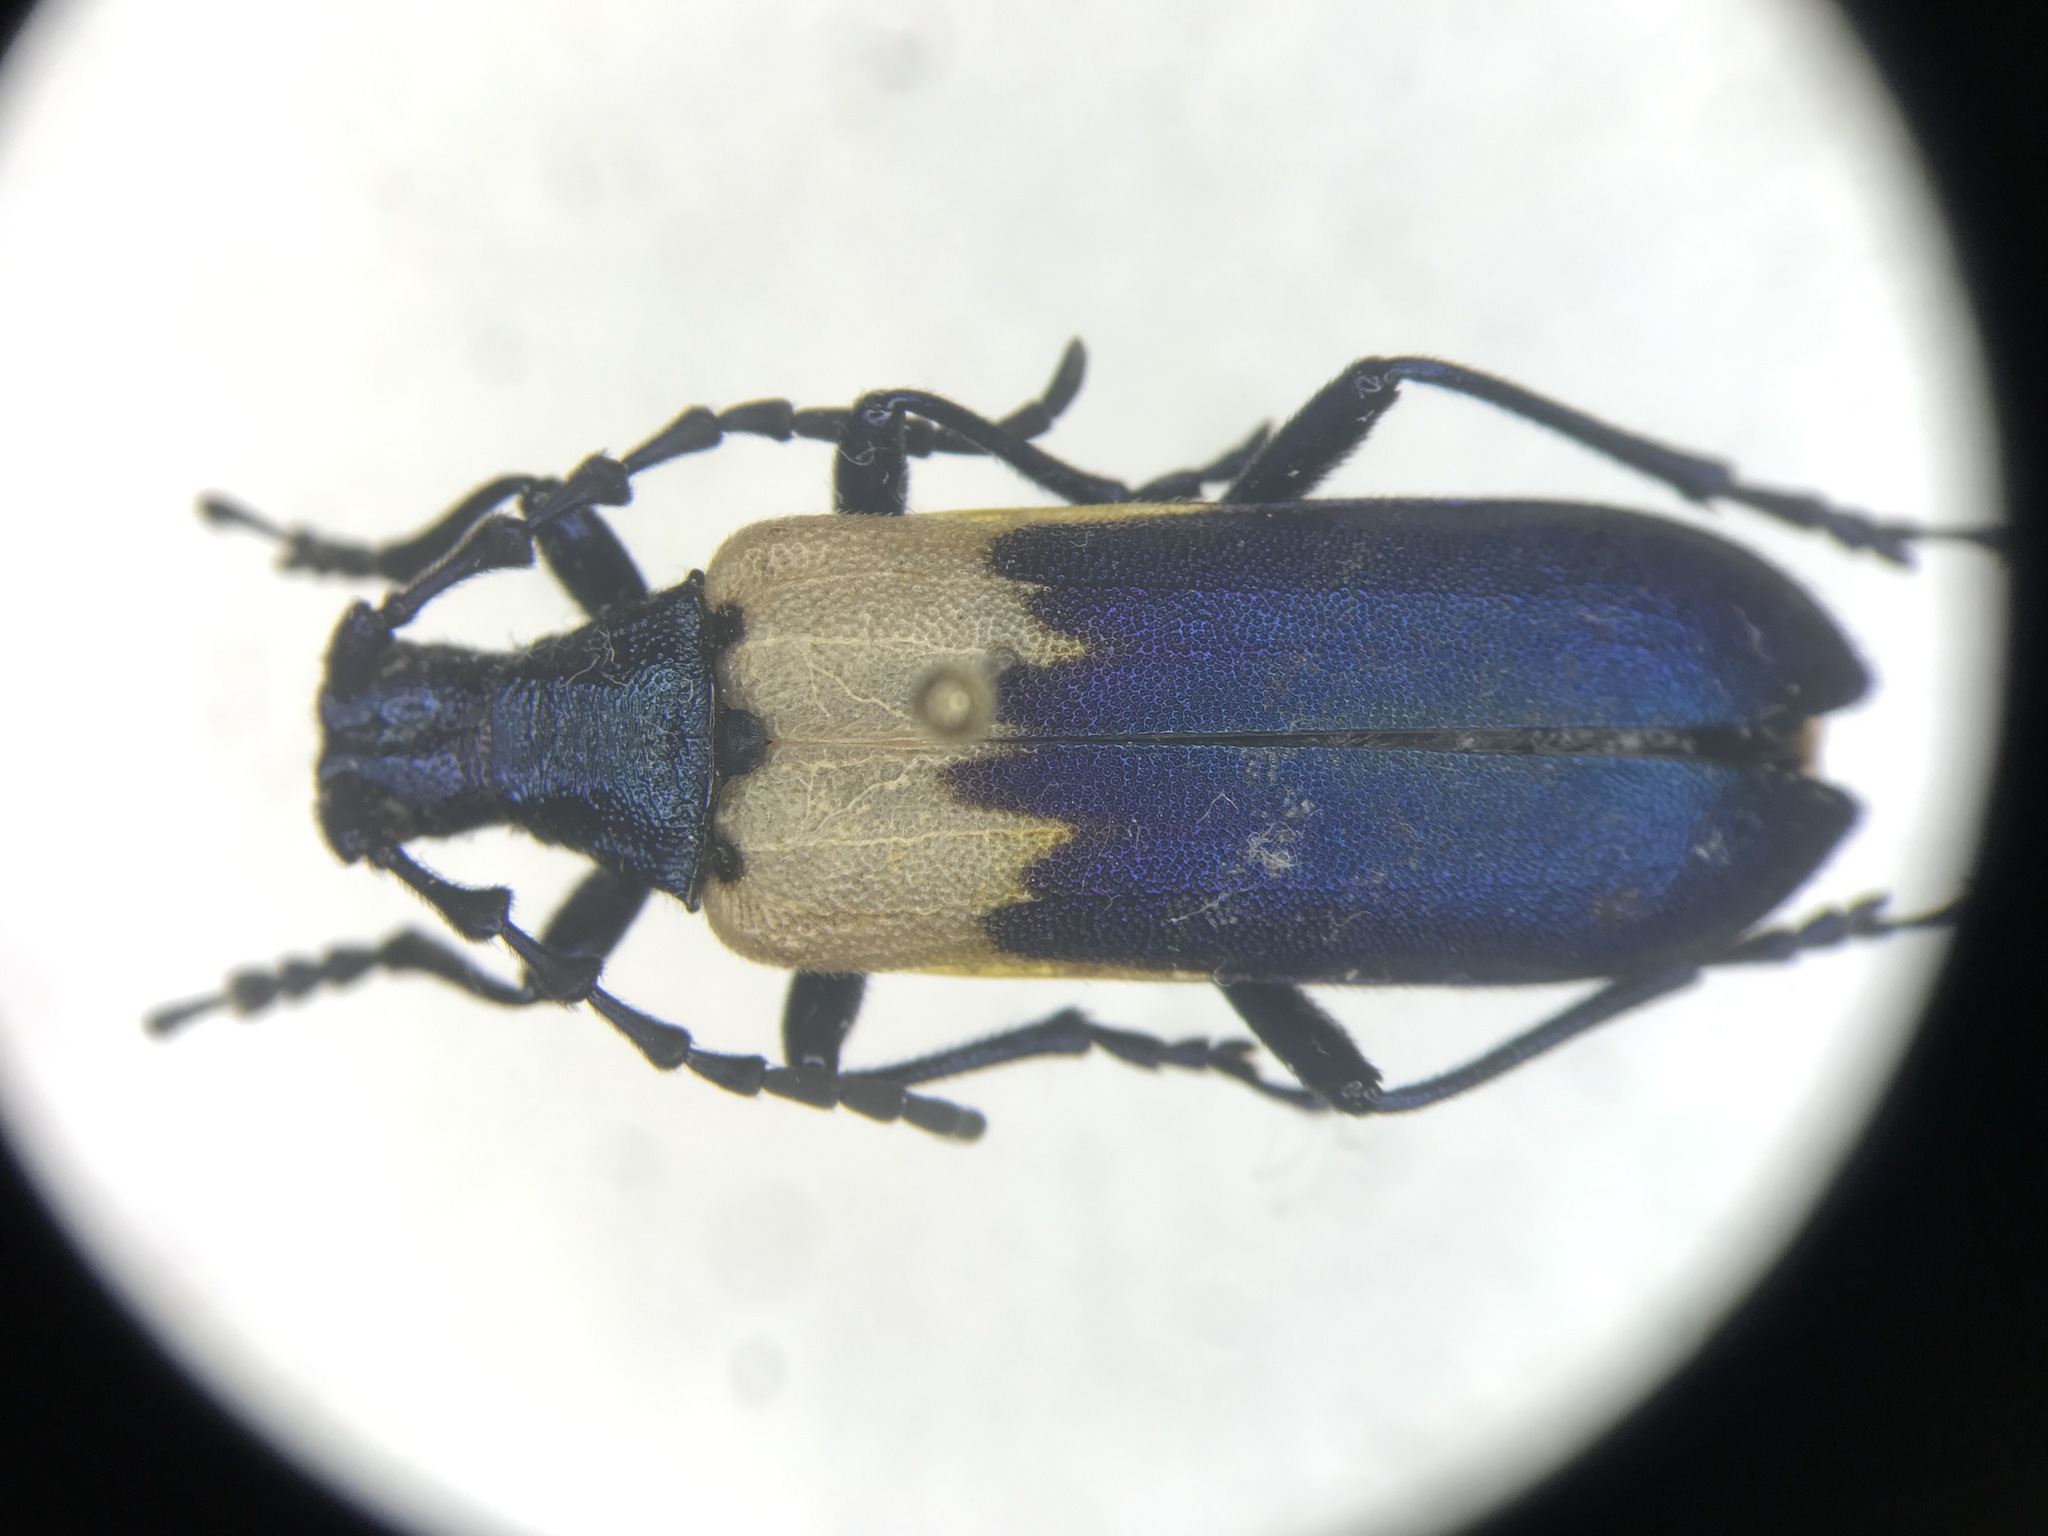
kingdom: Animalia
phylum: Arthropoda
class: Insecta
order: Coleoptera
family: Cerambycidae
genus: Desmocerus
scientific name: Desmocerus palliatus
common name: Eastern elderberry borer
